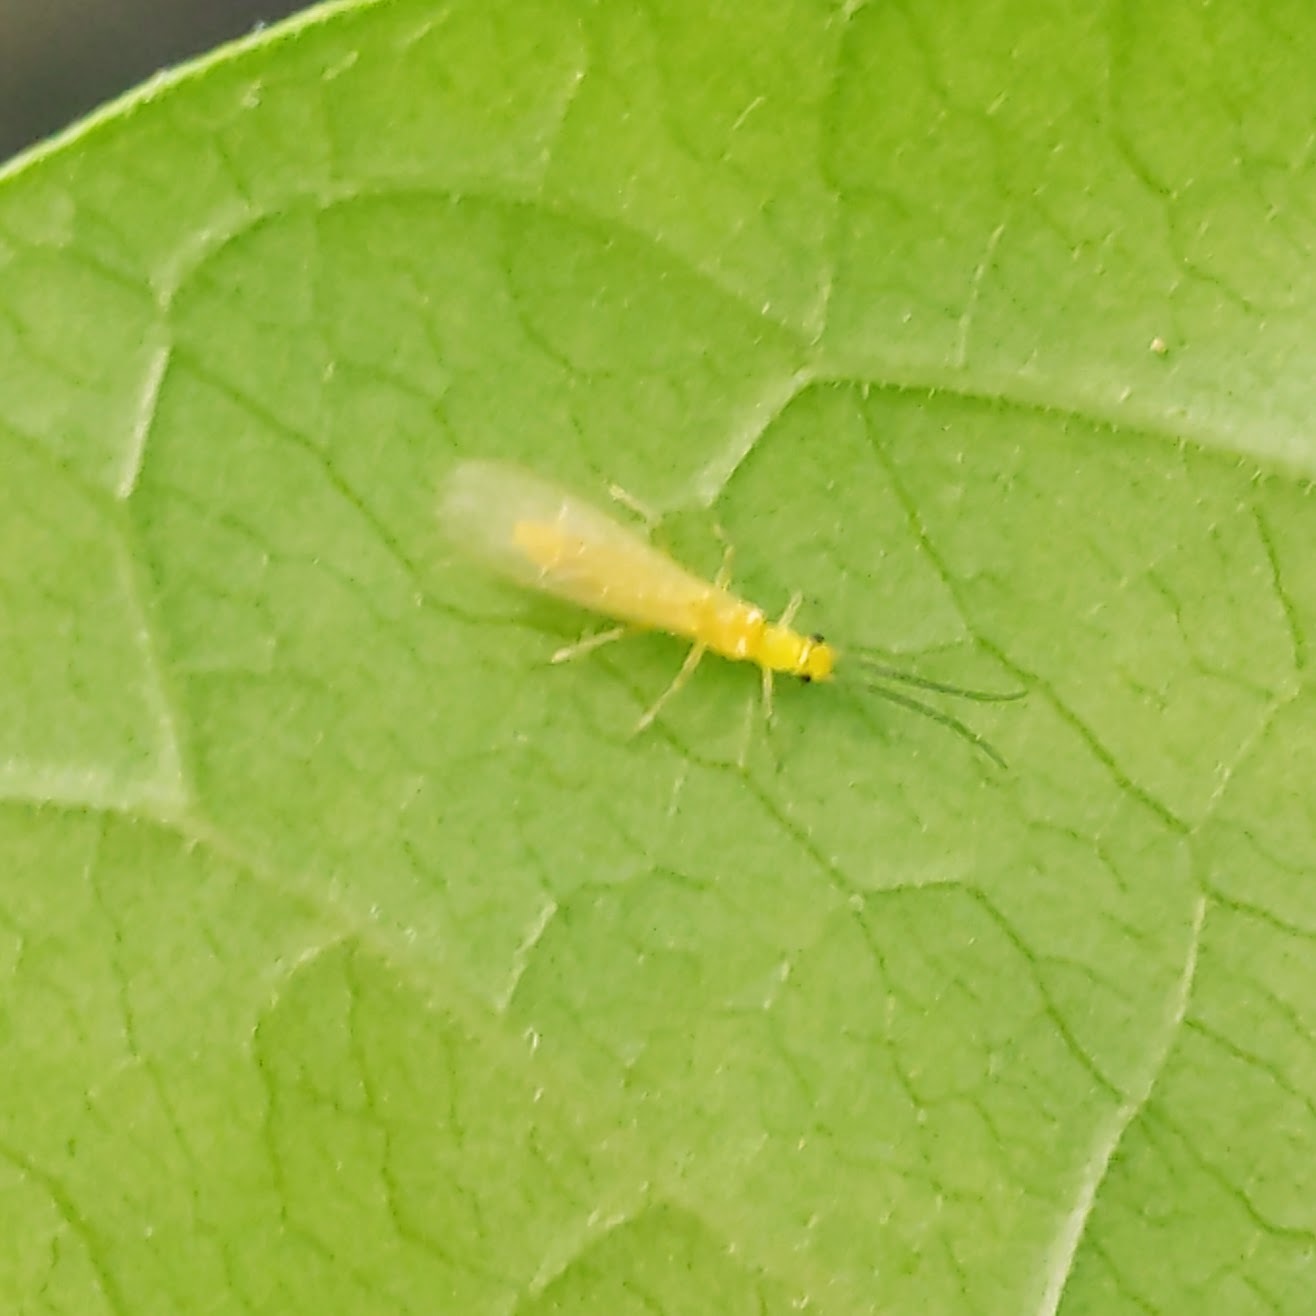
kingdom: Animalia
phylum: Arthropoda
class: Insecta
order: Plecoptera
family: Chloroperlidae
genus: Haploperla
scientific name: Haploperla
